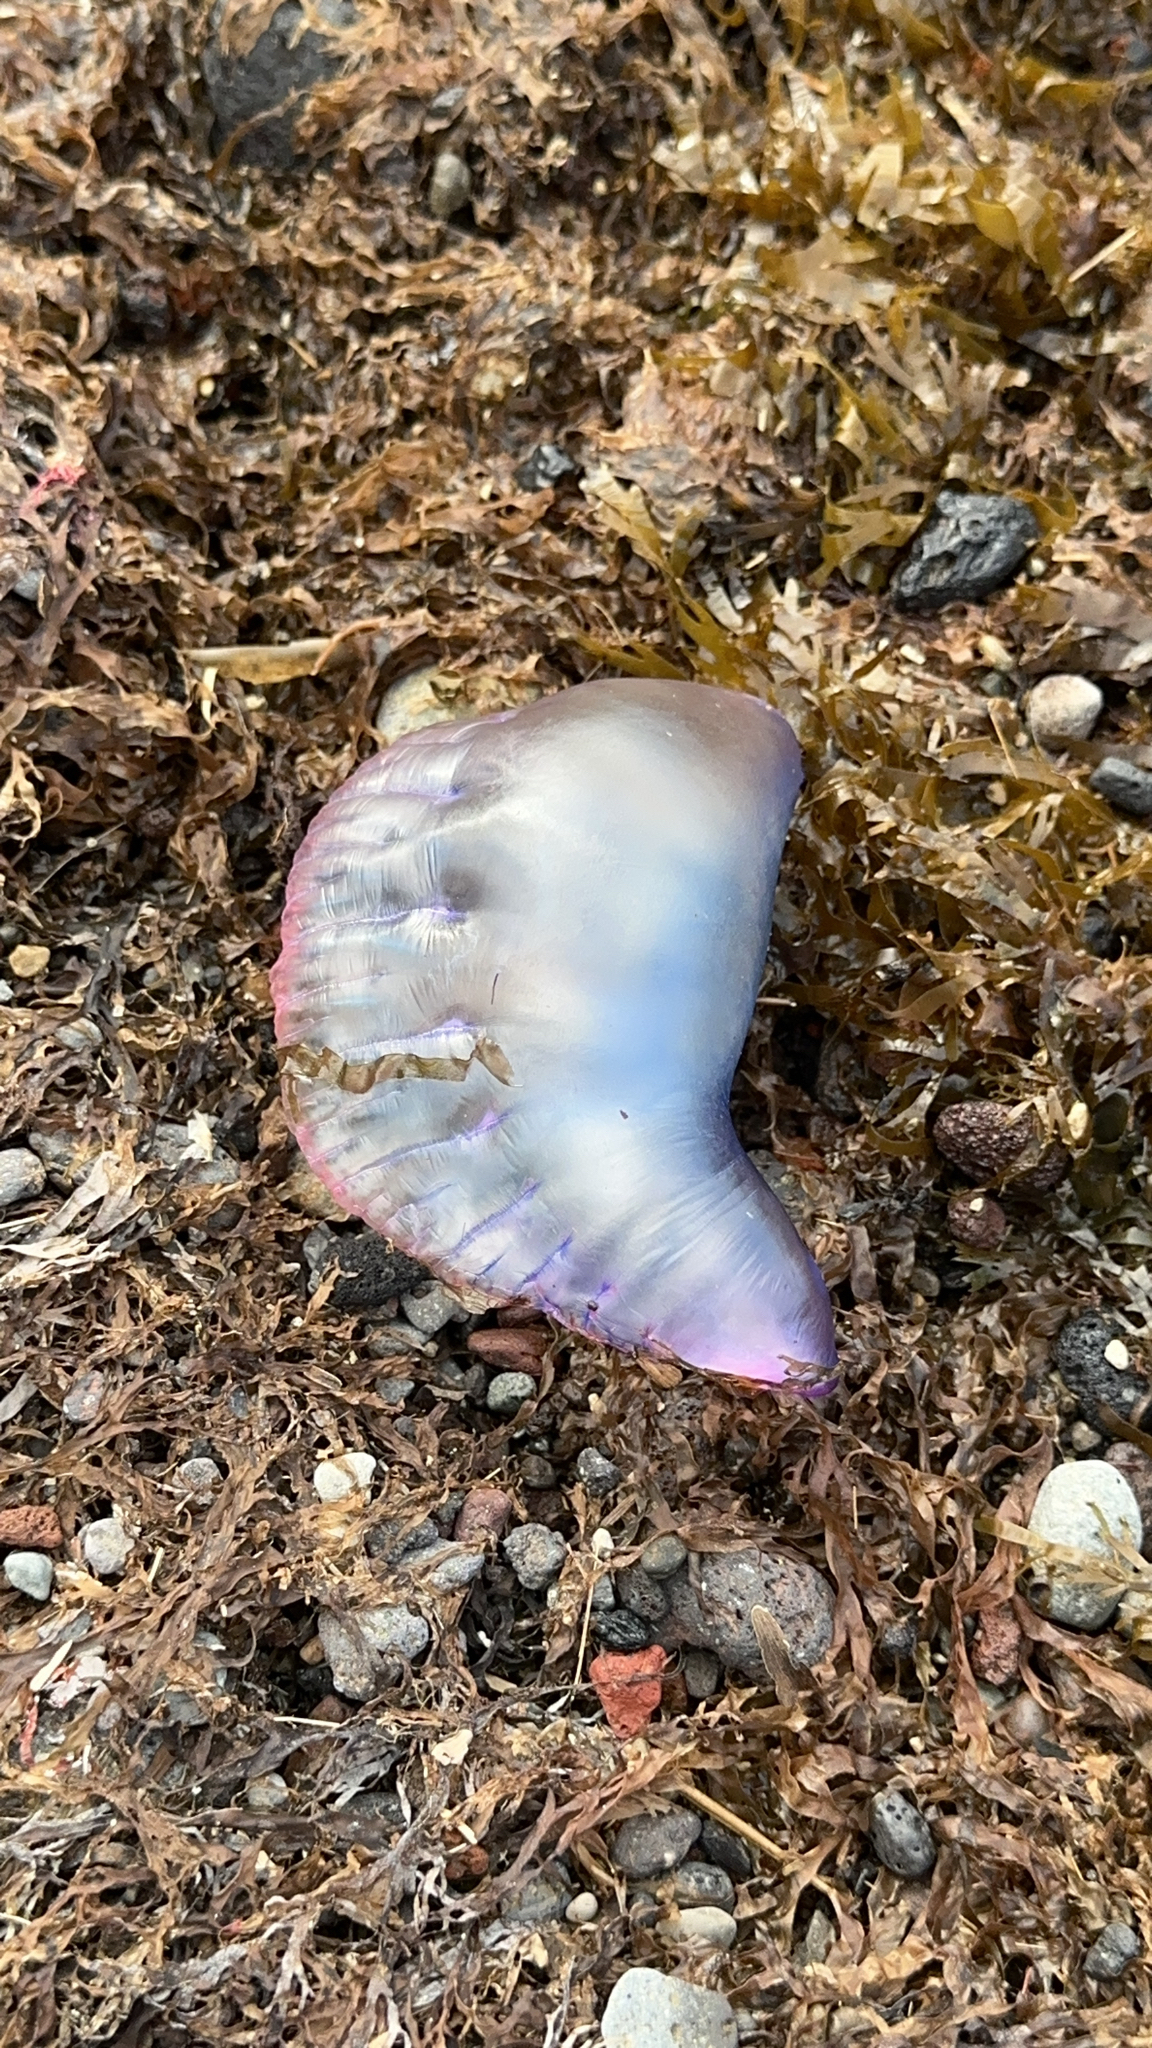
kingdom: Animalia
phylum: Cnidaria
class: Hydrozoa
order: Siphonophorae
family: Physaliidae
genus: Physalia
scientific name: Physalia physalis
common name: Portuguese man-of-war
